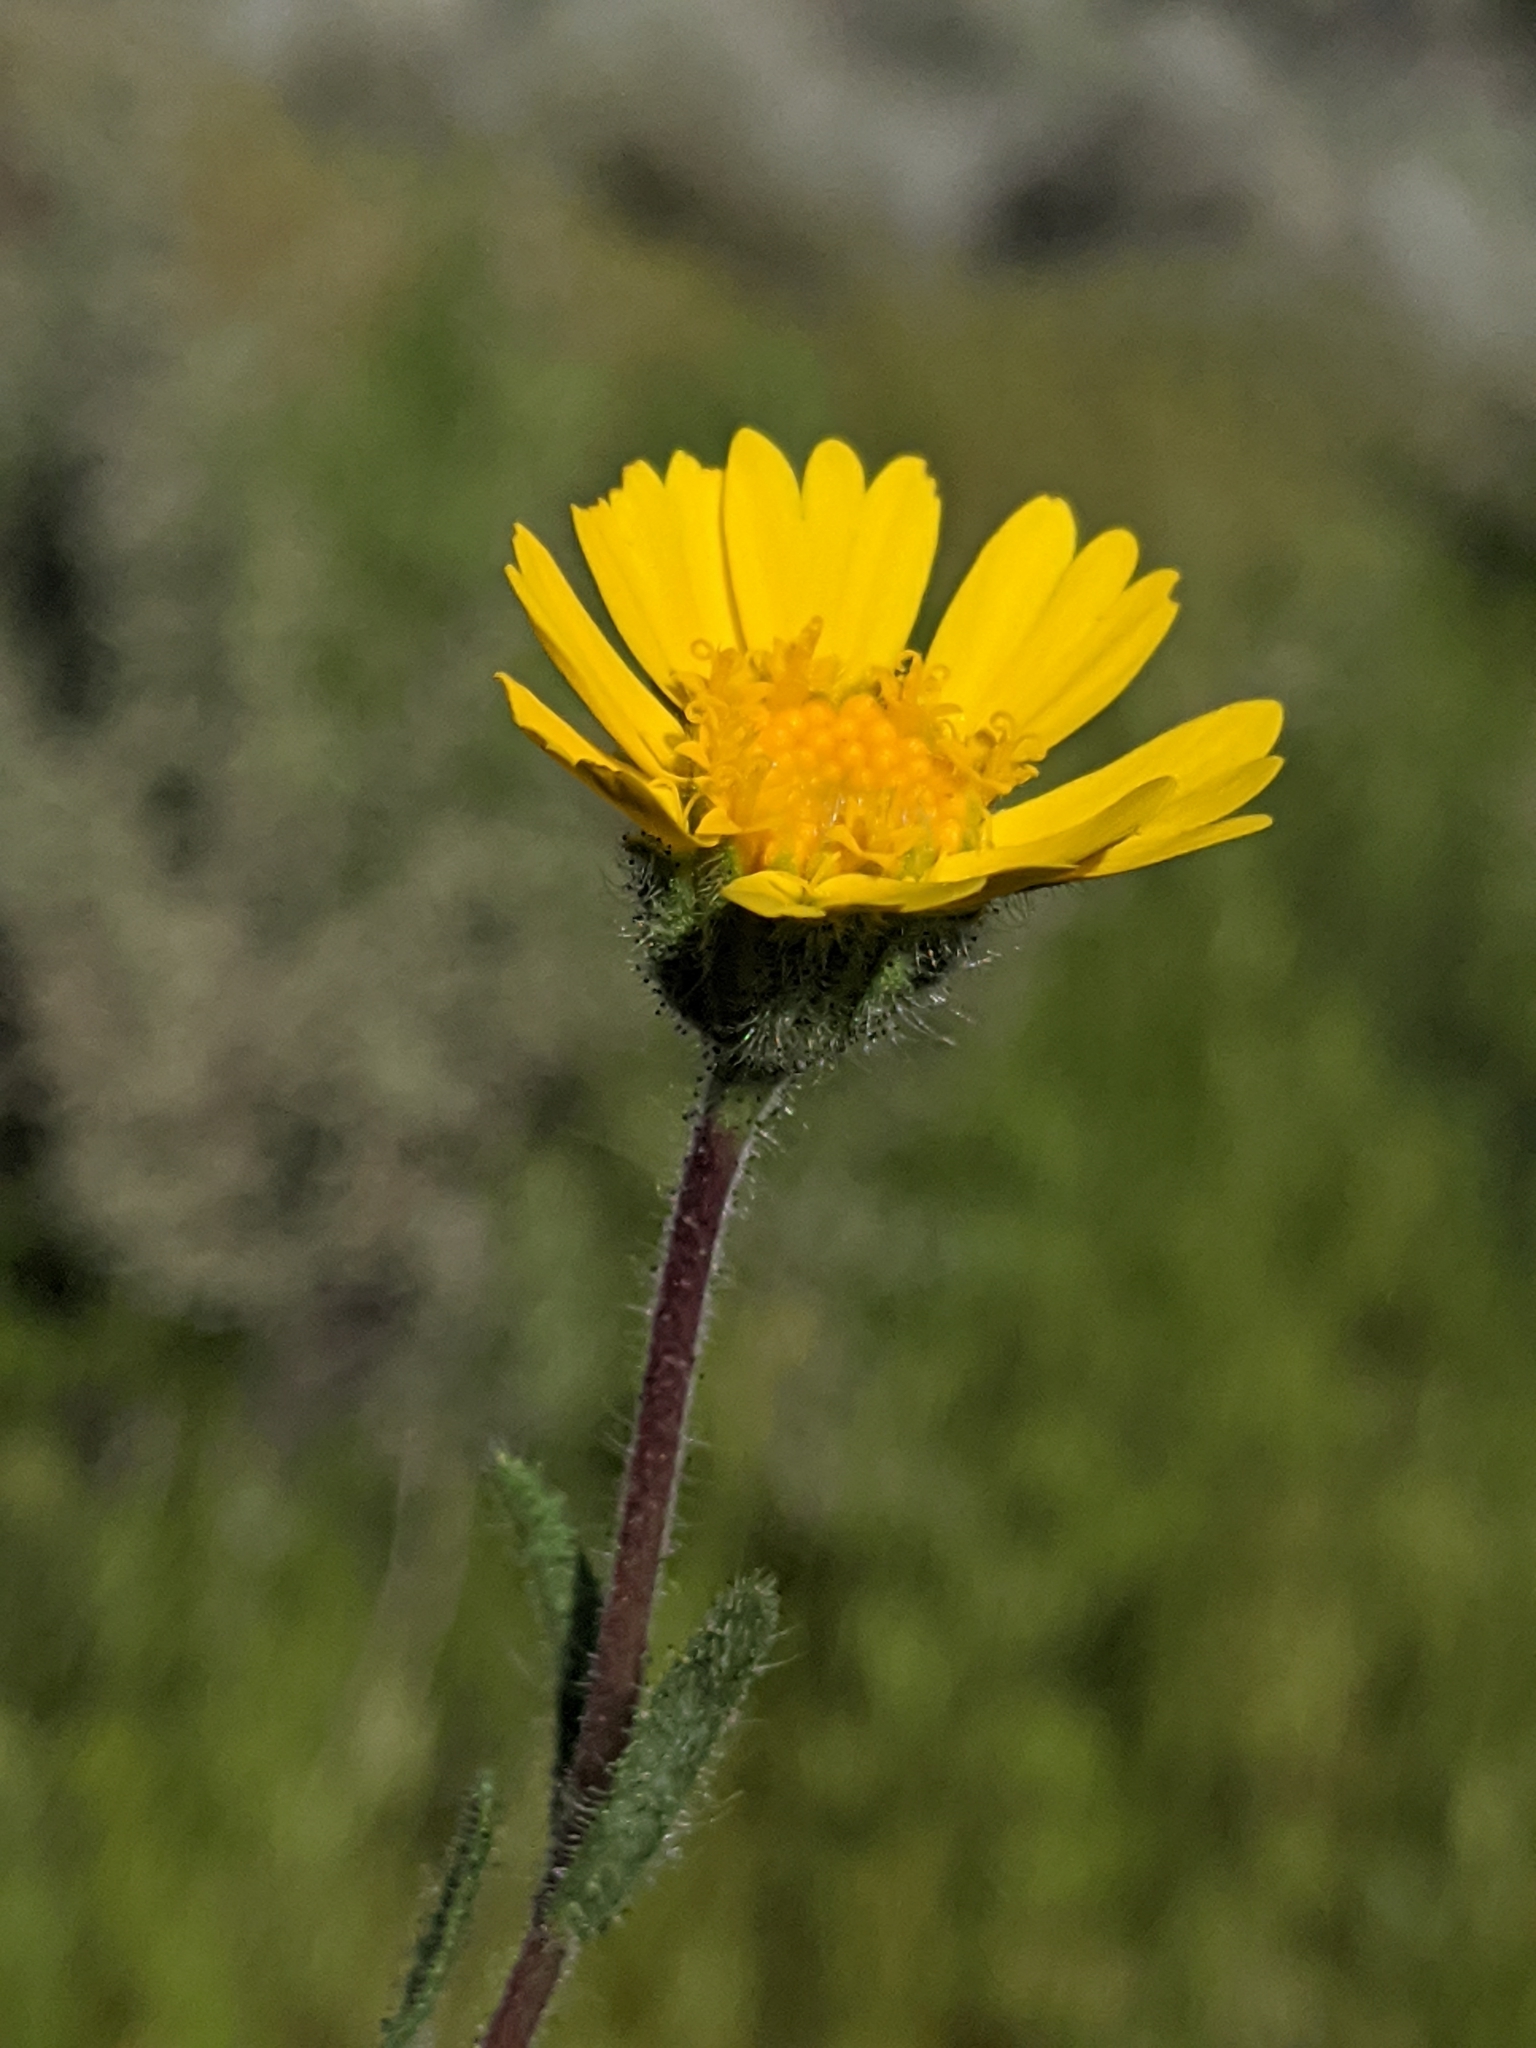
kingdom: Plantae
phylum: Tracheophyta
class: Magnoliopsida
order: Asterales
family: Asteraceae
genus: Layia
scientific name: Layia glandulosa
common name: White layia
